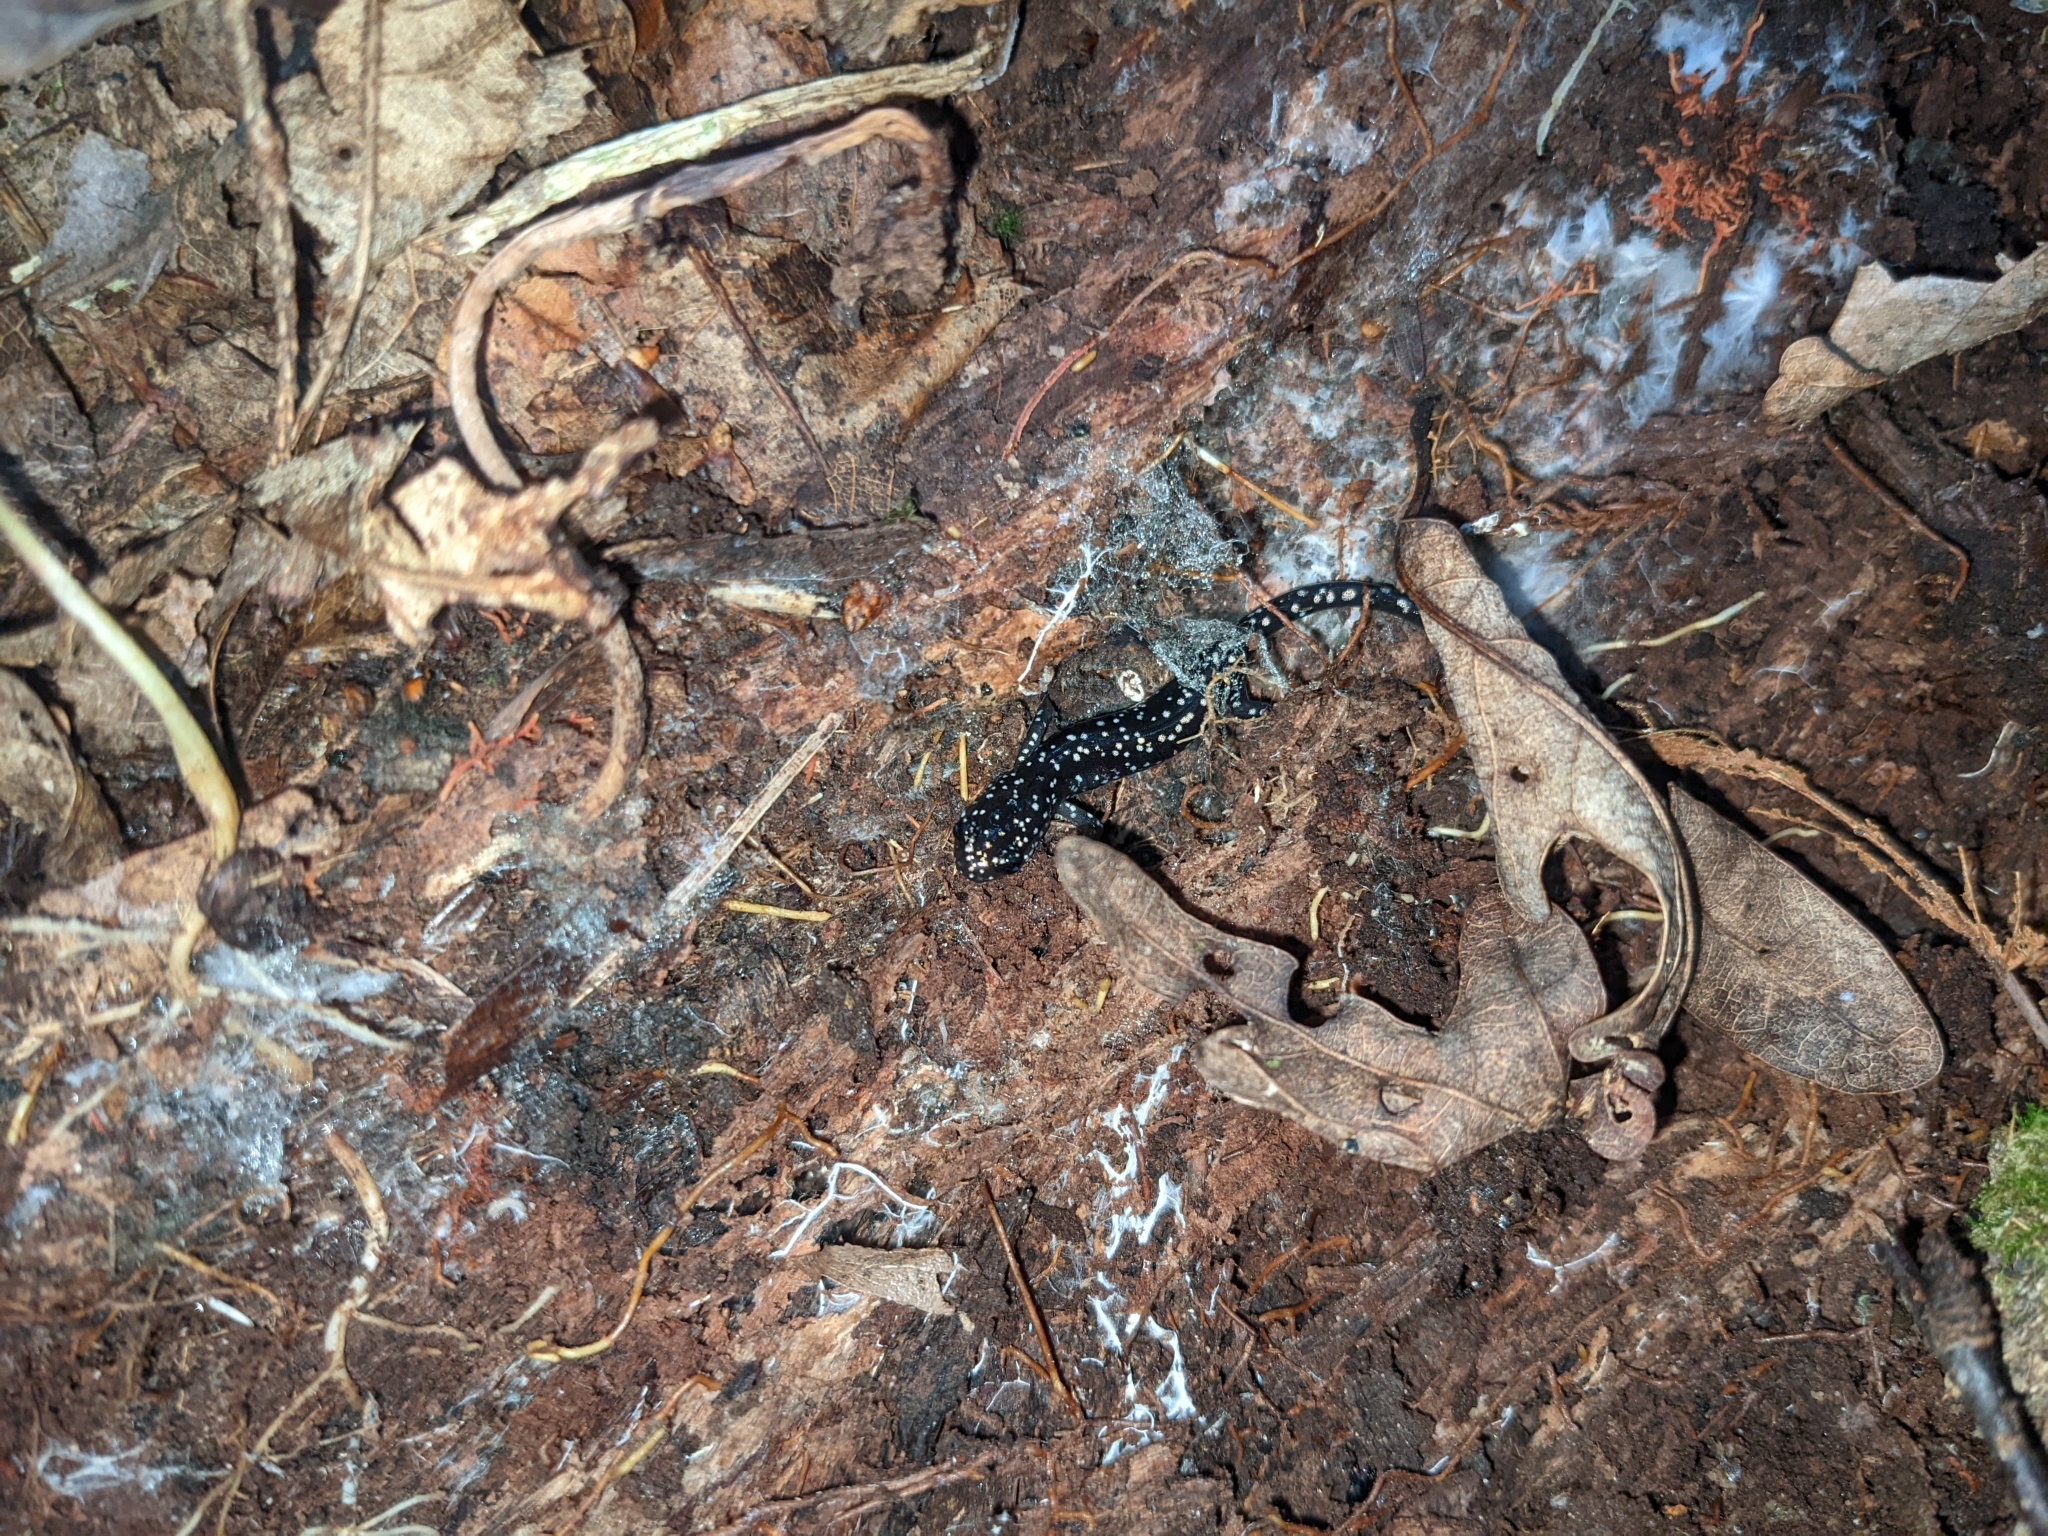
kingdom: Animalia
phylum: Chordata
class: Amphibia
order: Caudata
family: Plethodontidae
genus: Plethodon
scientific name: Plethodon glutinosus
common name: Northern slimy salamander
